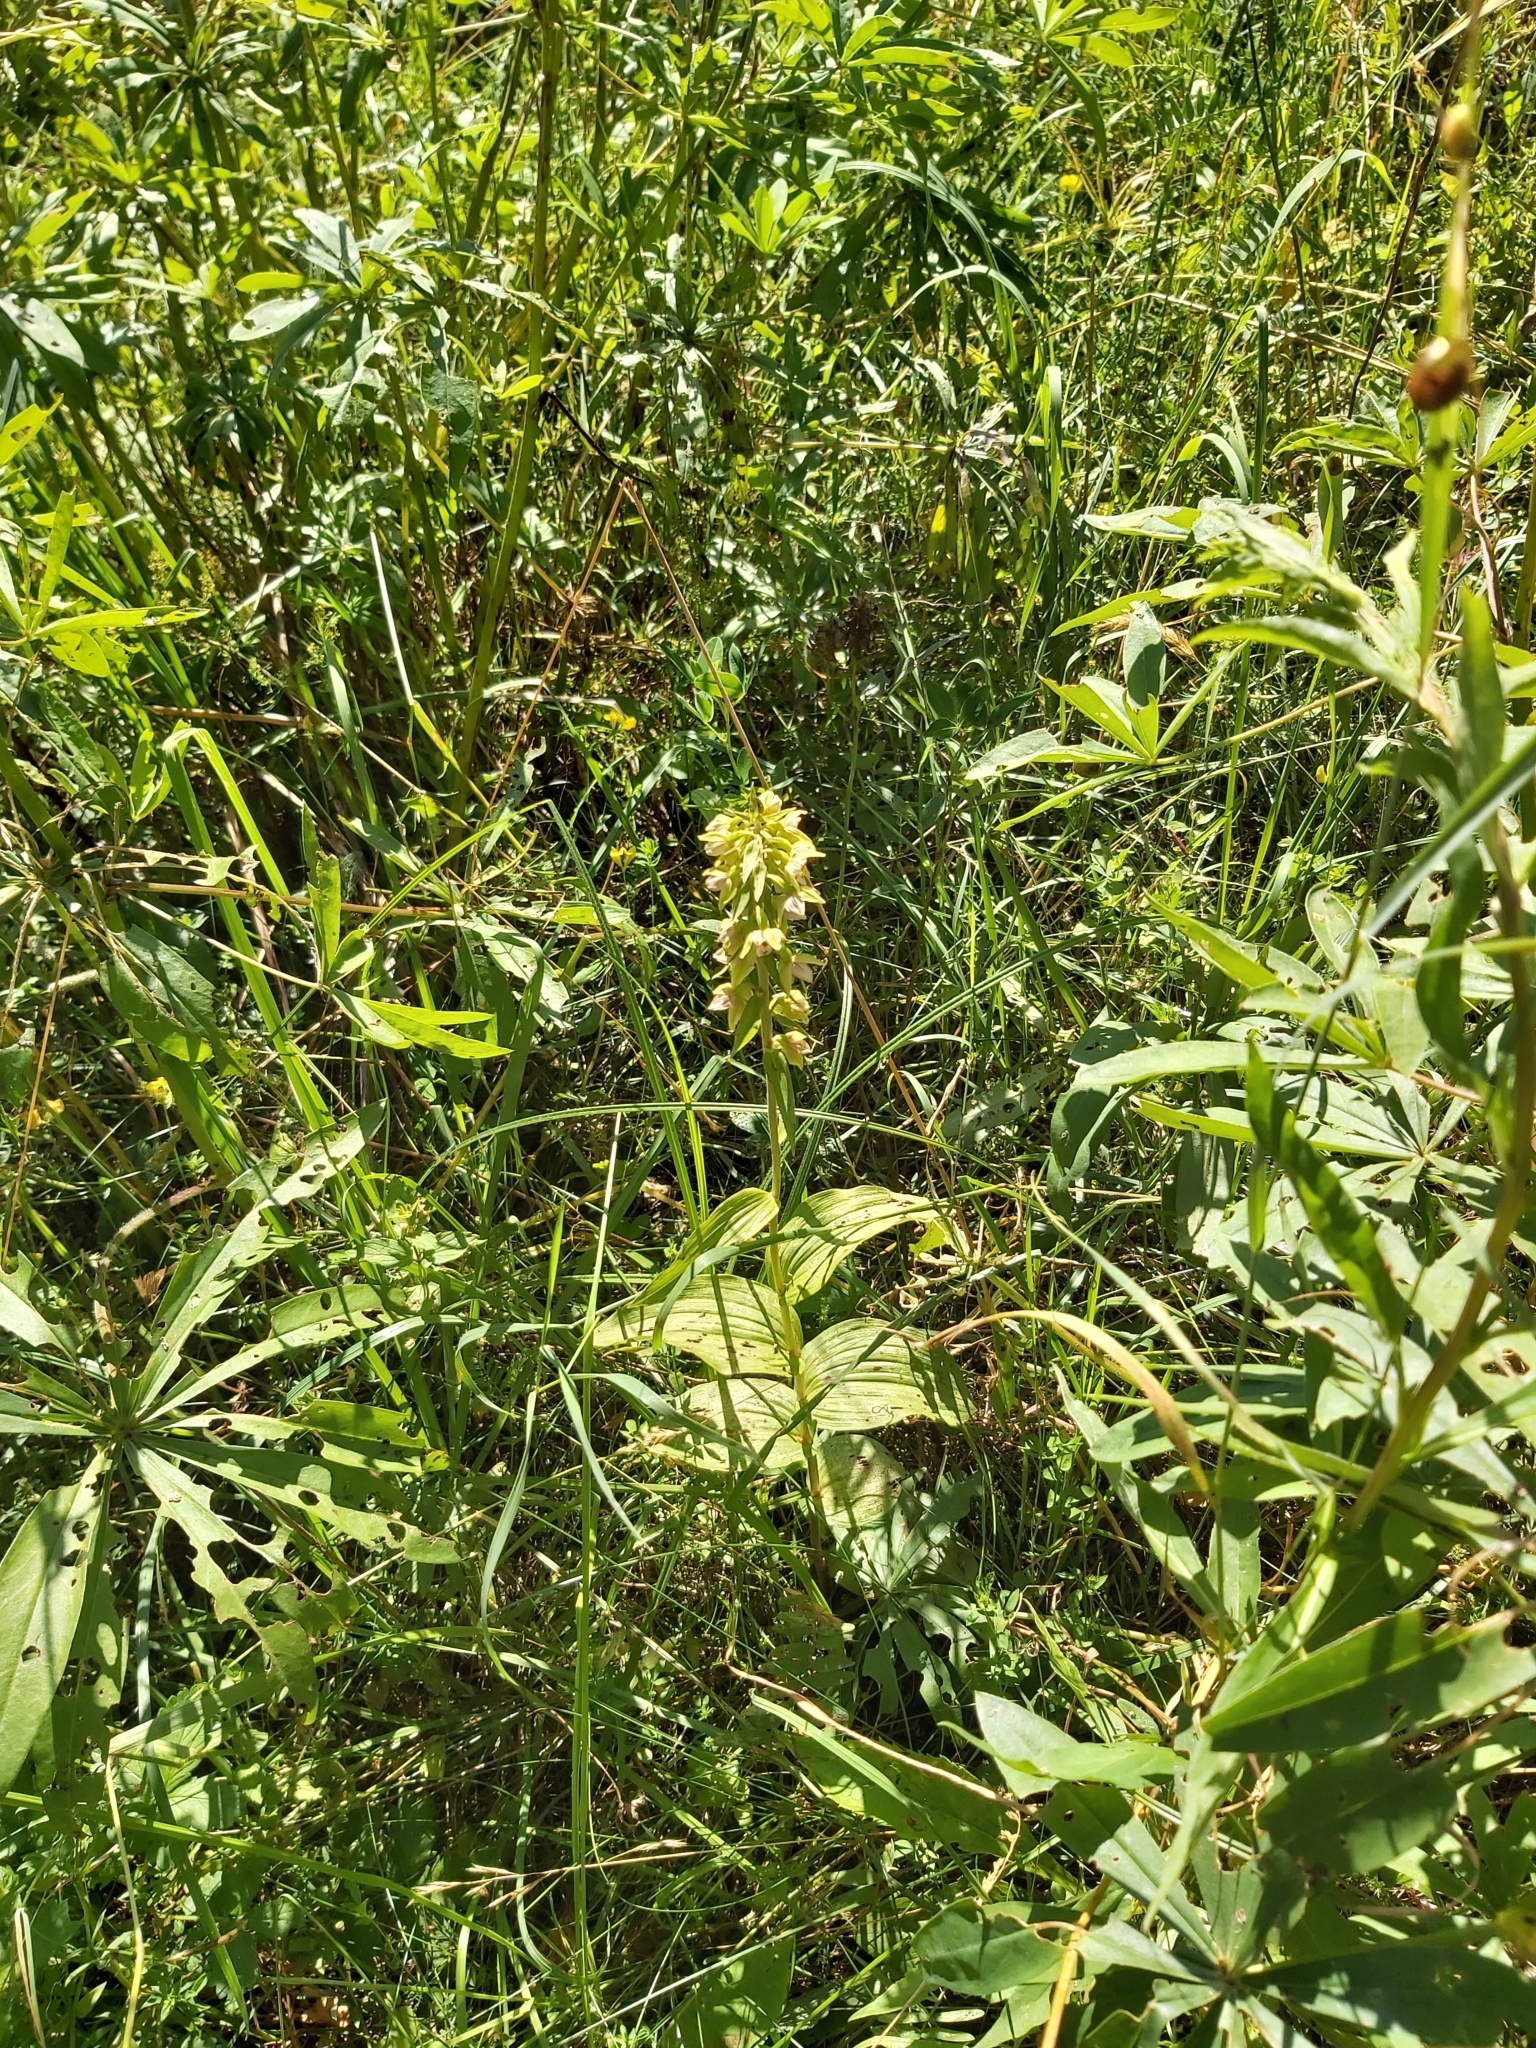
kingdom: Plantae
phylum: Tracheophyta
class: Liliopsida
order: Asparagales
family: Orchidaceae
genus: Epipactis
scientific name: Epipactis helleborine
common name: Broad-leaved helleborine
